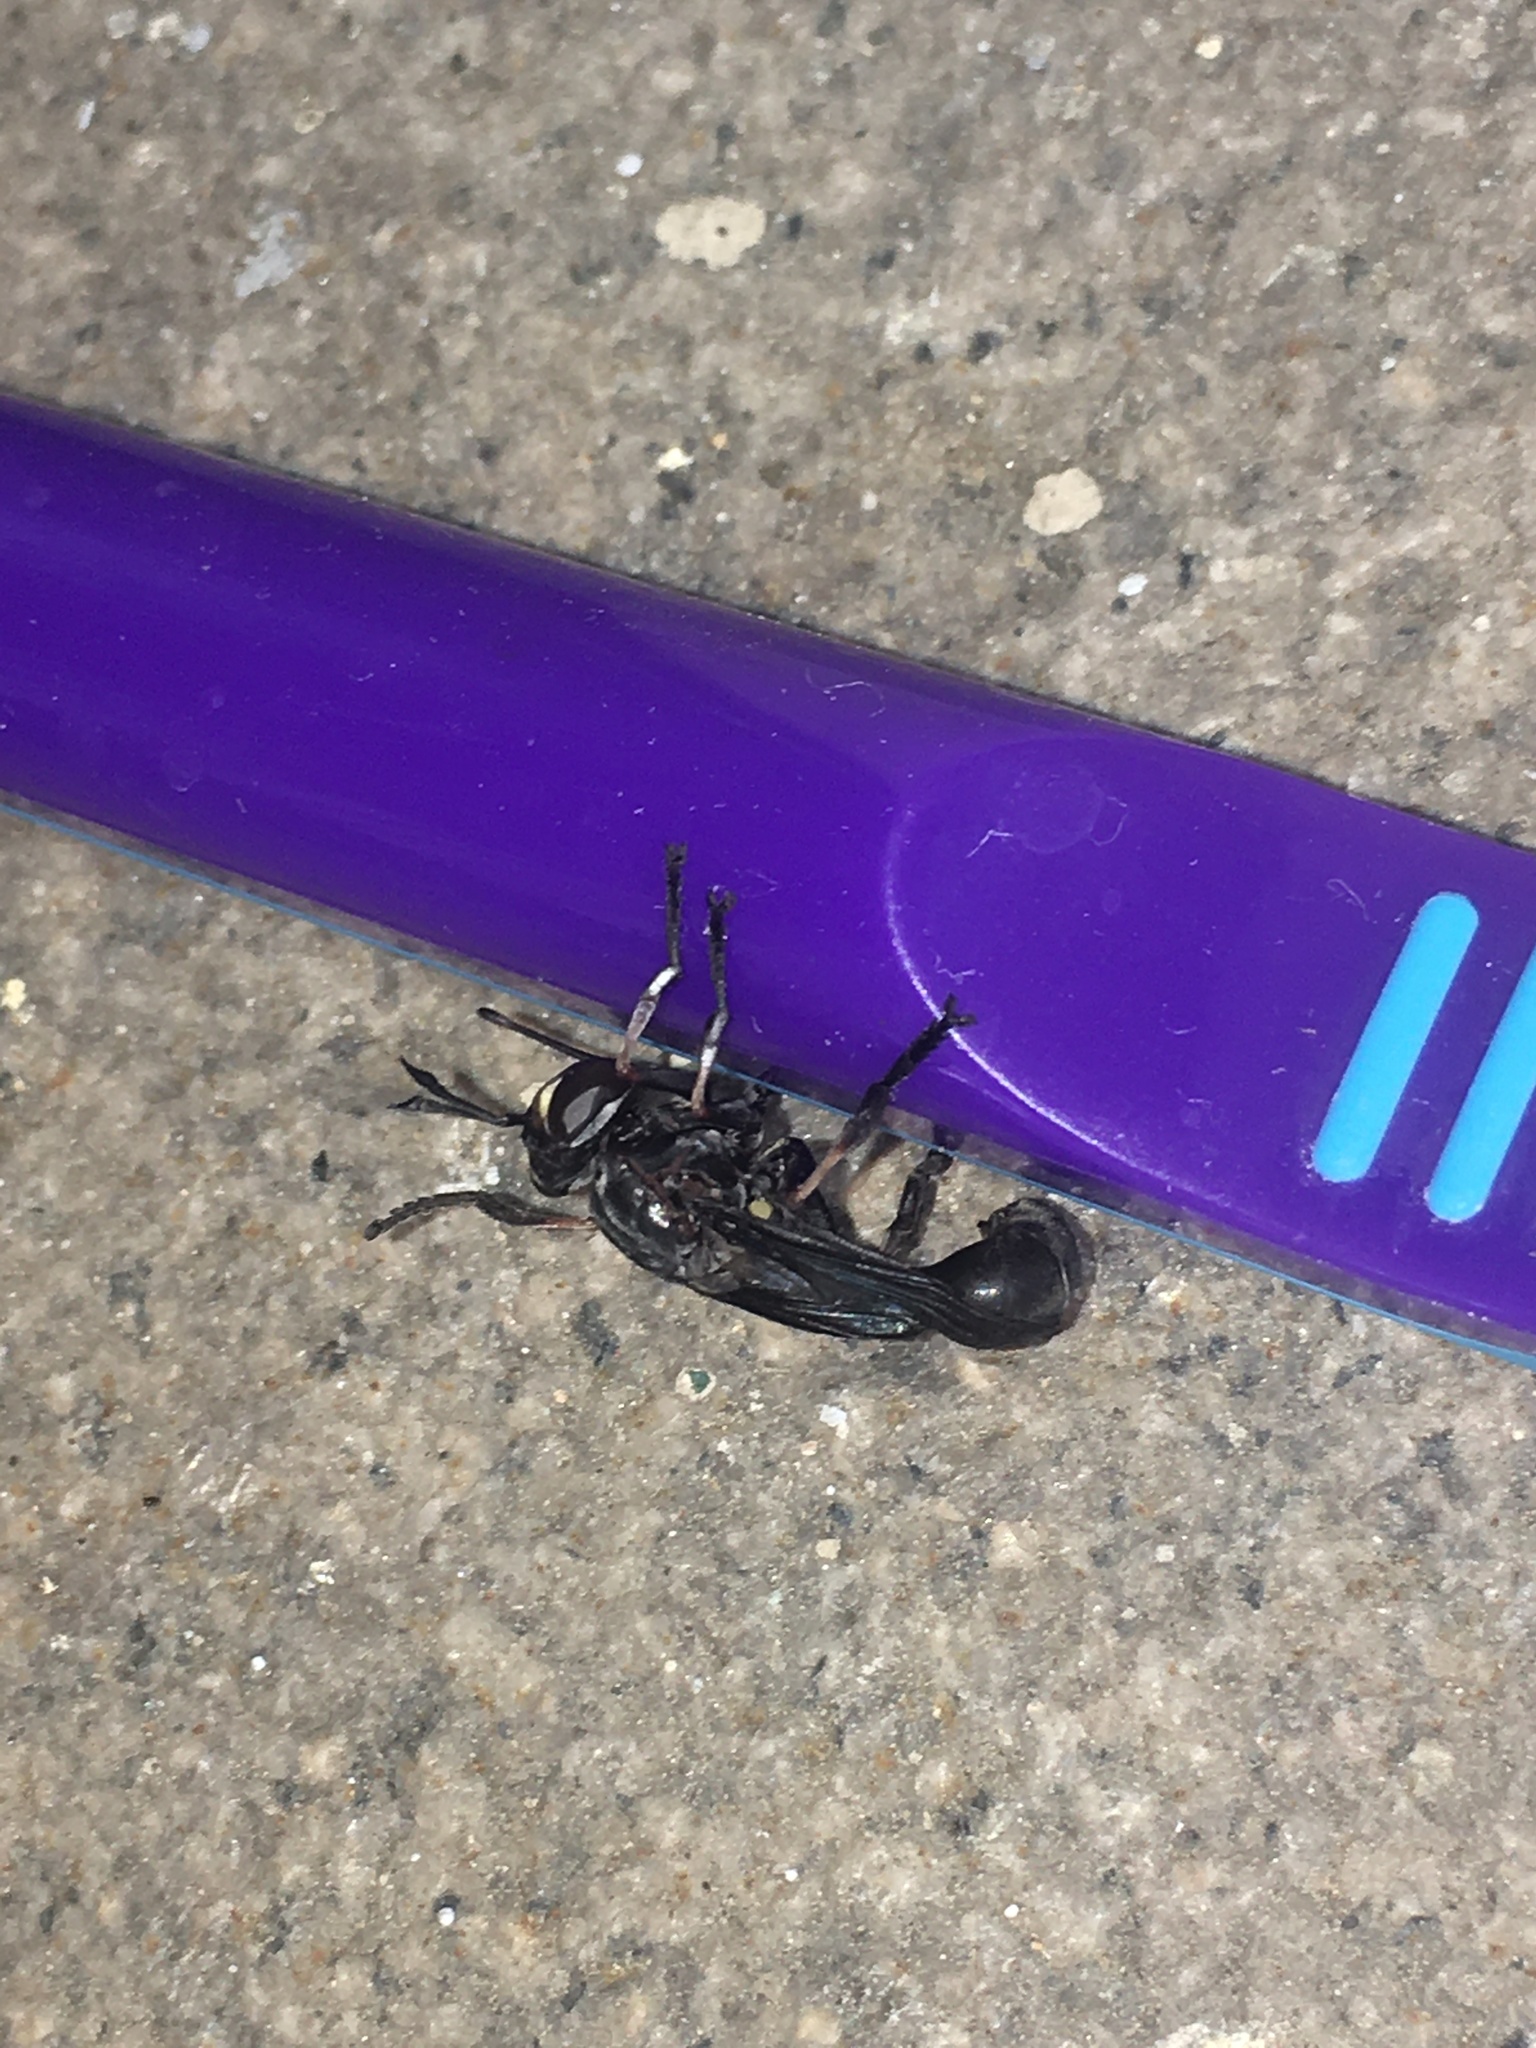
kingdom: Animalia
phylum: Arthropoda
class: Insecta
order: Diptera
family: Conopidae
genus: Physocephala
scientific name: Physocephala floridana
